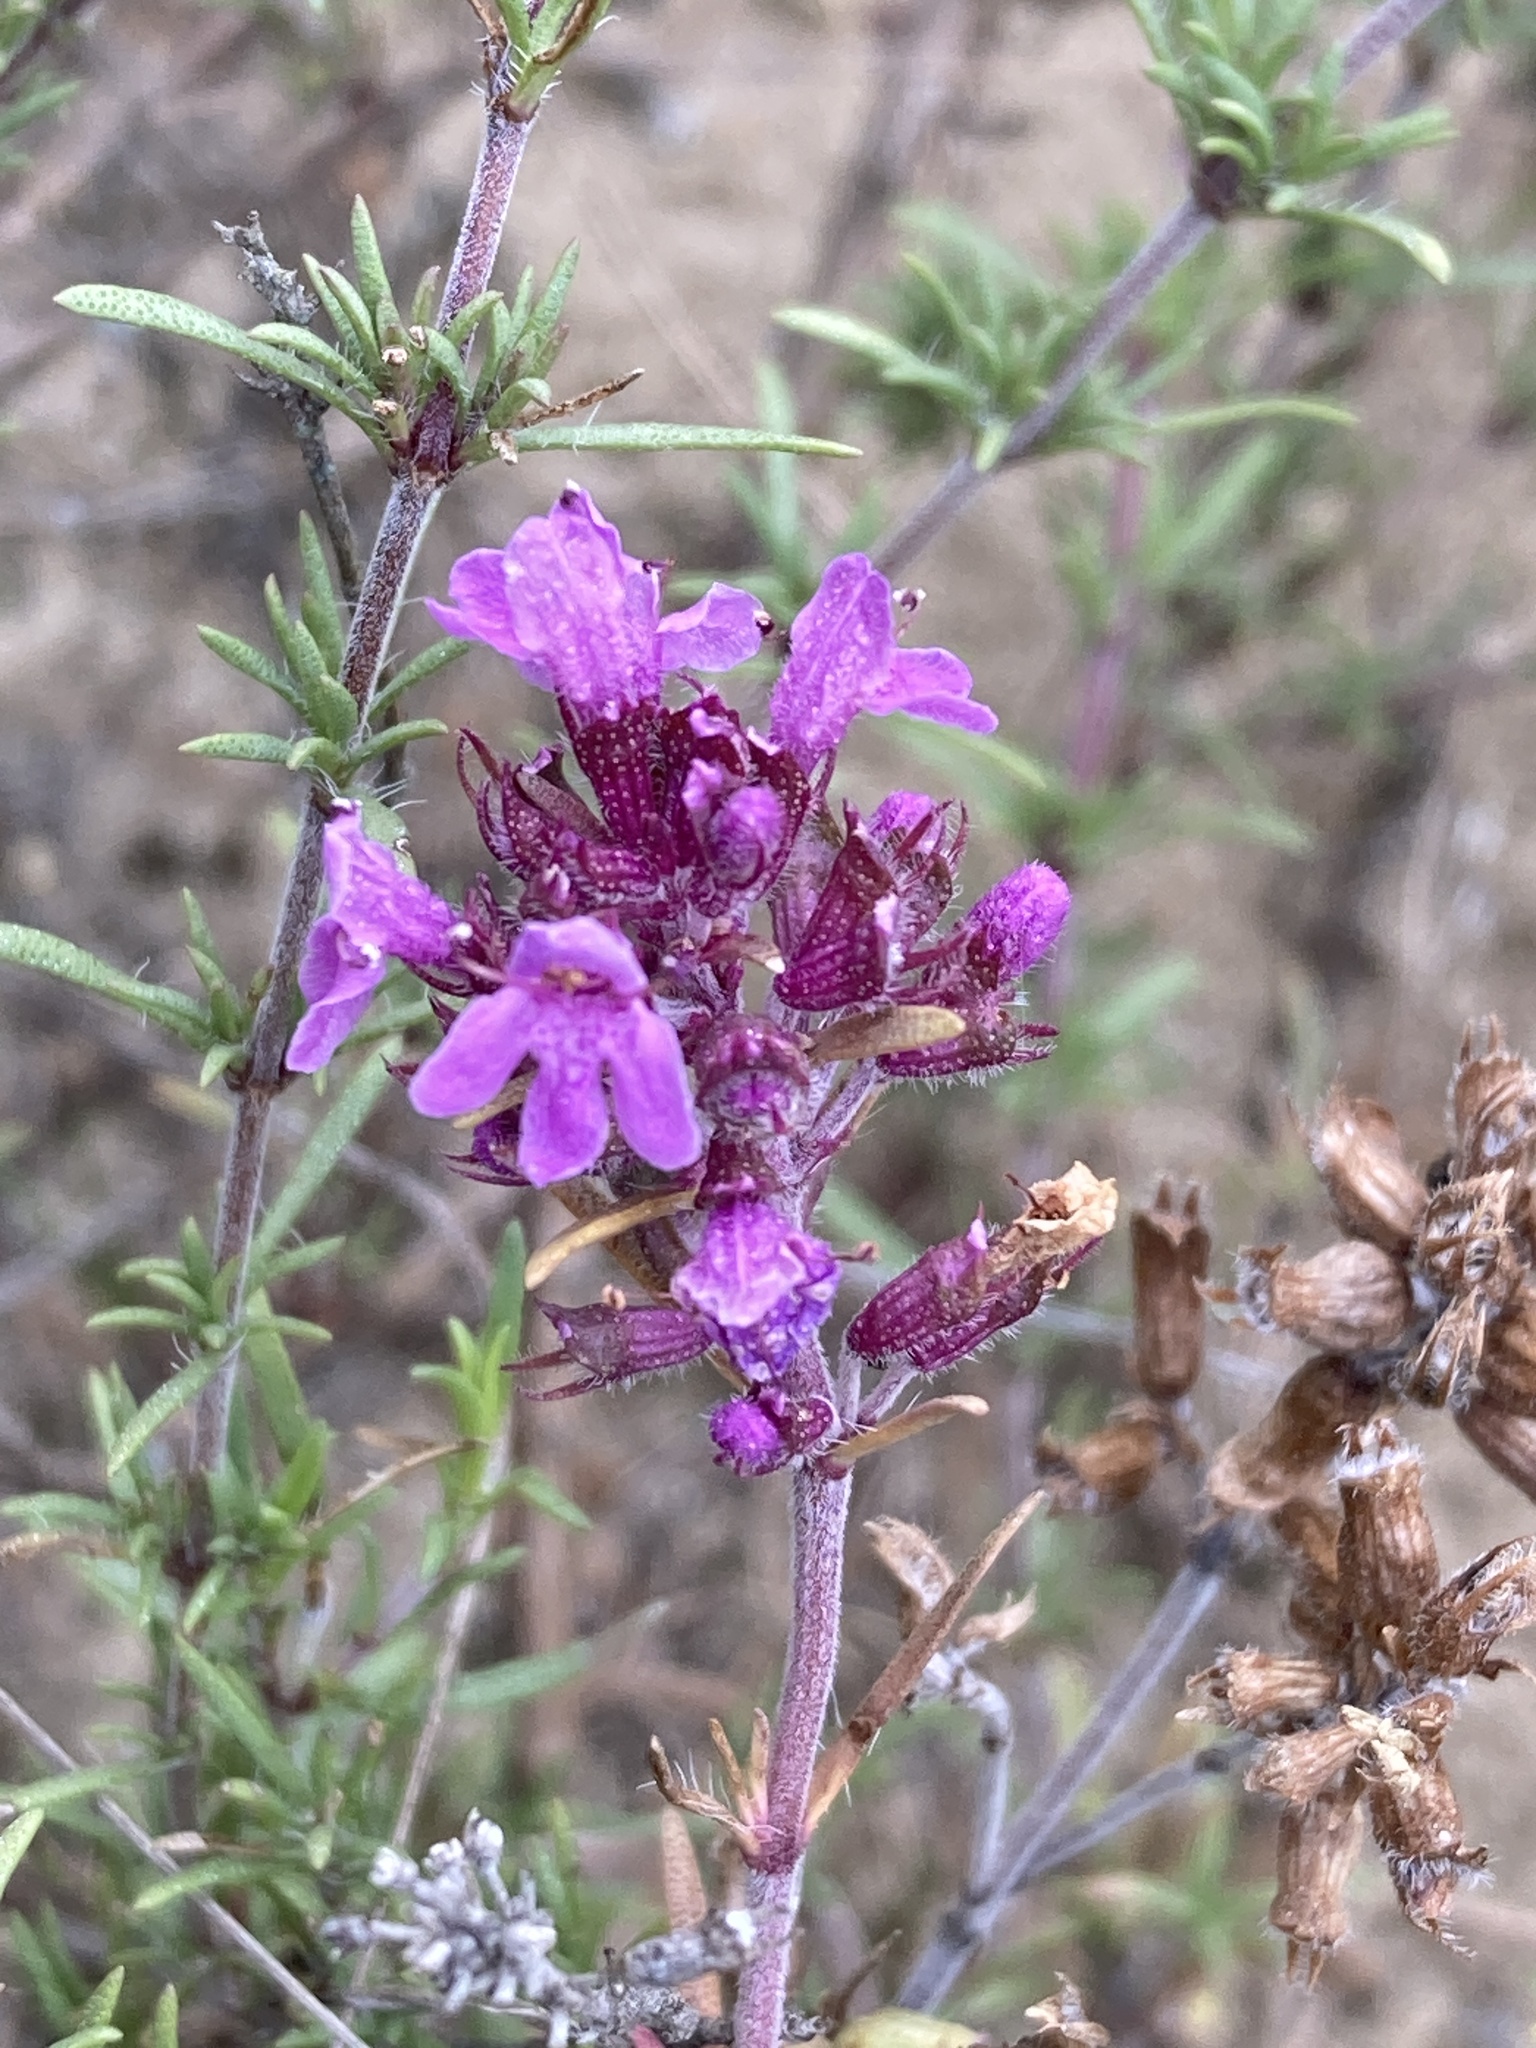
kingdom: Plantae
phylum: Tracheophyta
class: Magnoliopsida
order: Lamiales
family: Lamiaceae
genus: Thymus
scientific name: Thymus pallasianus
